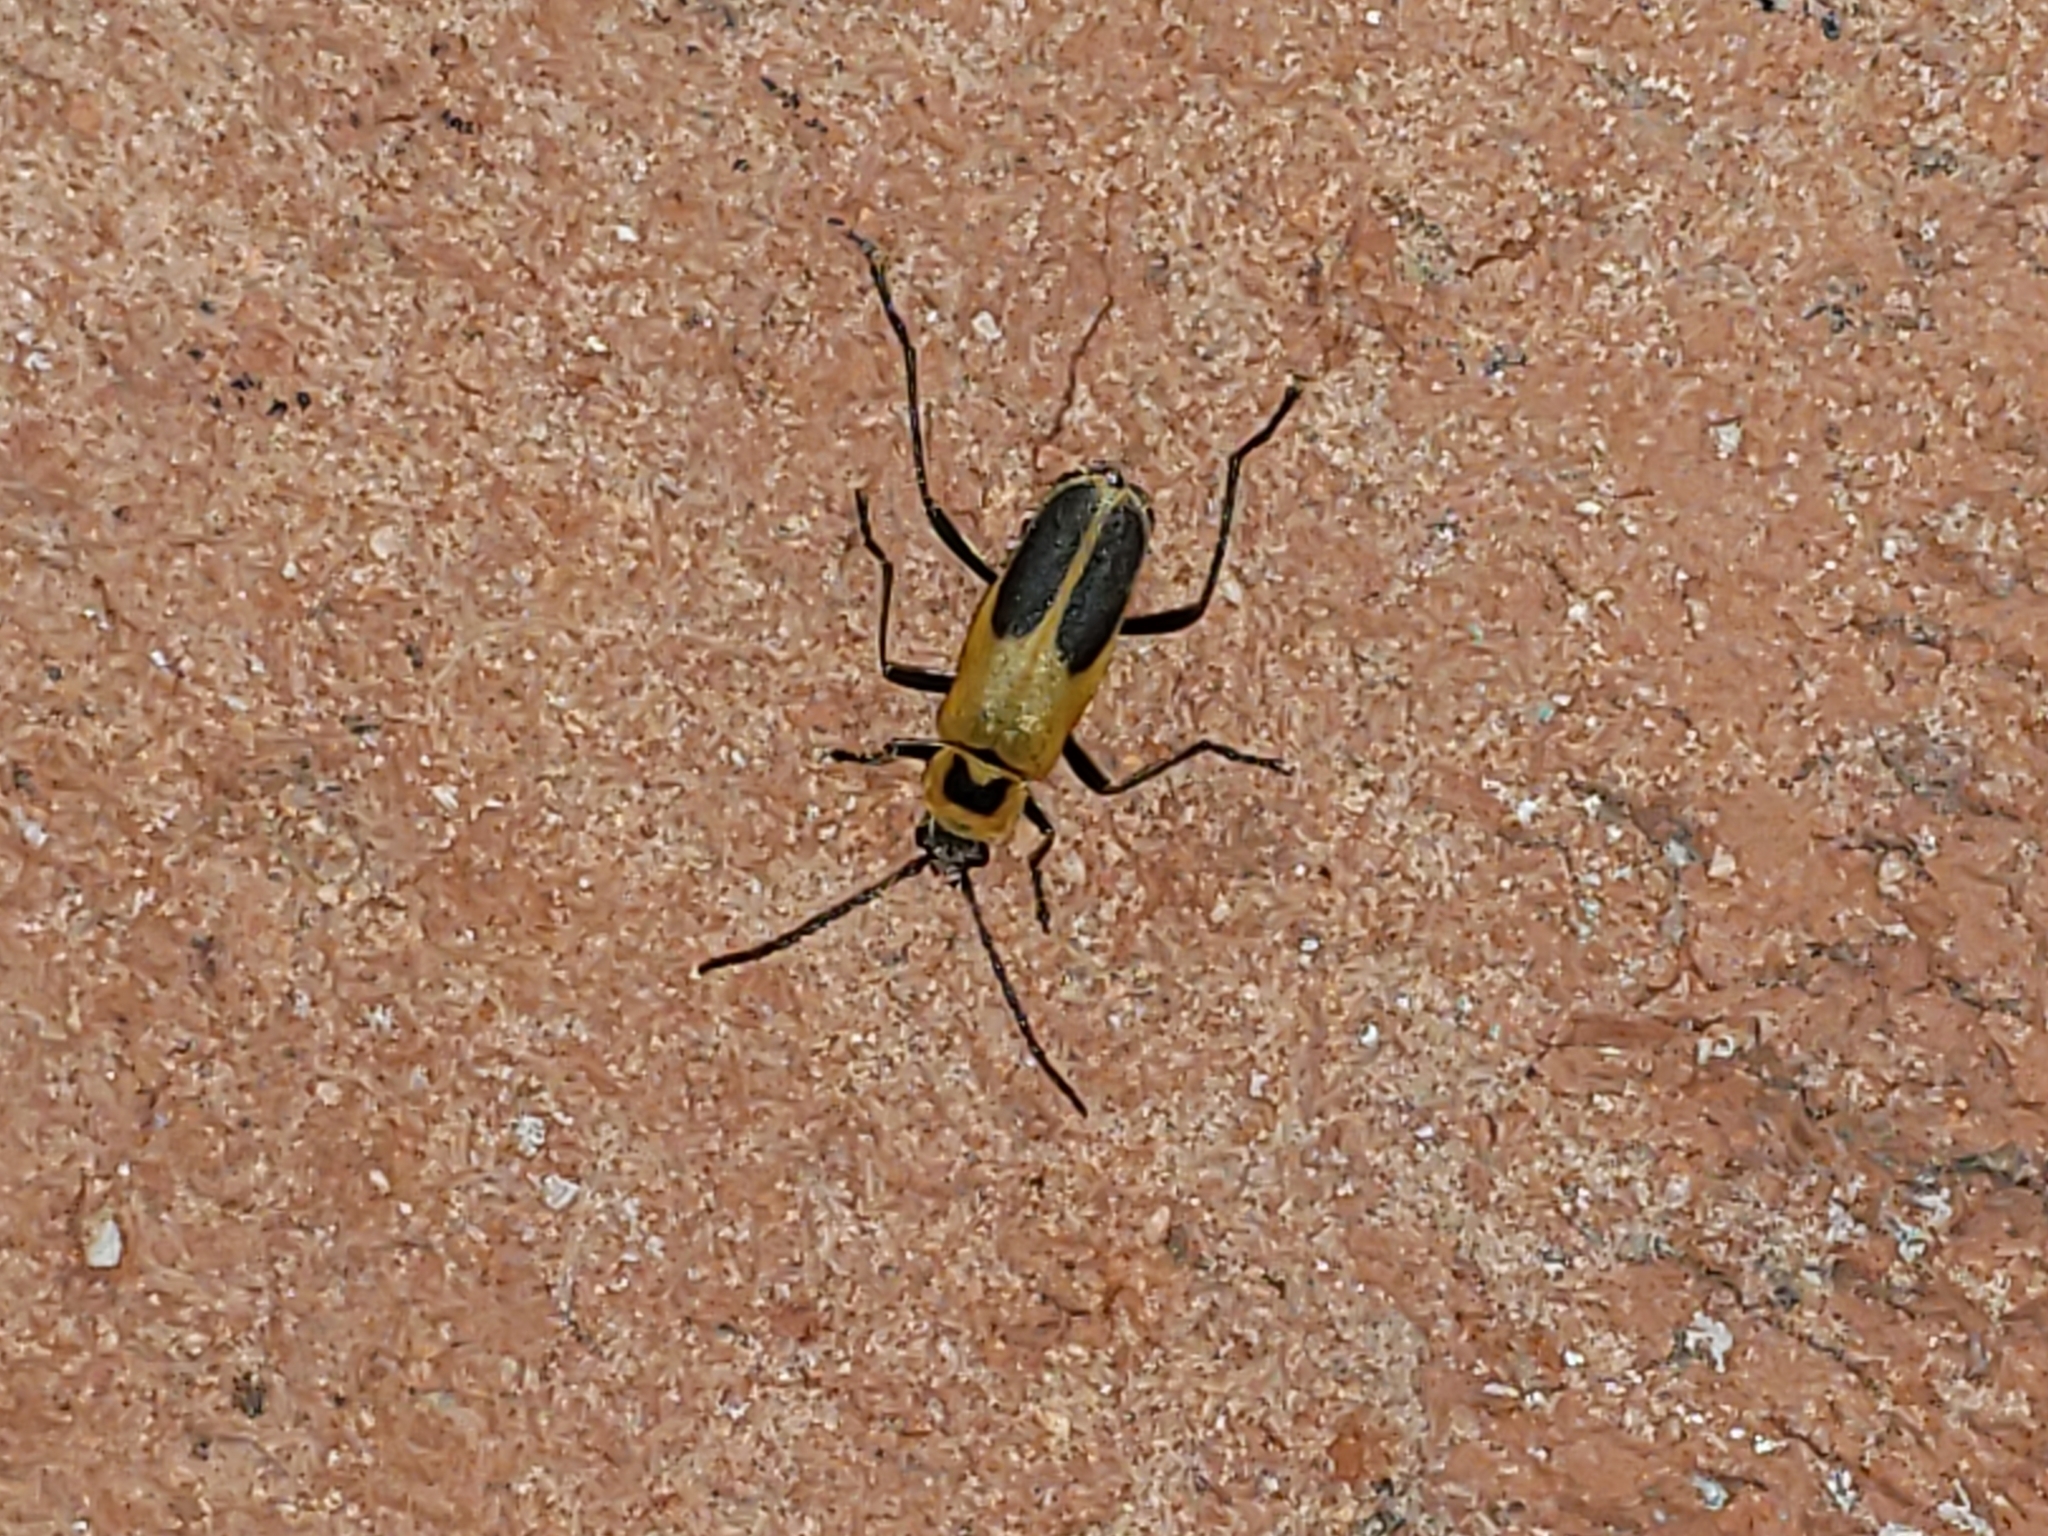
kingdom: Animalia
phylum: Arthropoda
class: Insecta
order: Coleoptera
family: Cantharidae
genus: Chauliognathus
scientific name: Chauliognathus pensylvanicus
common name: Goldenrod soldier beetle
